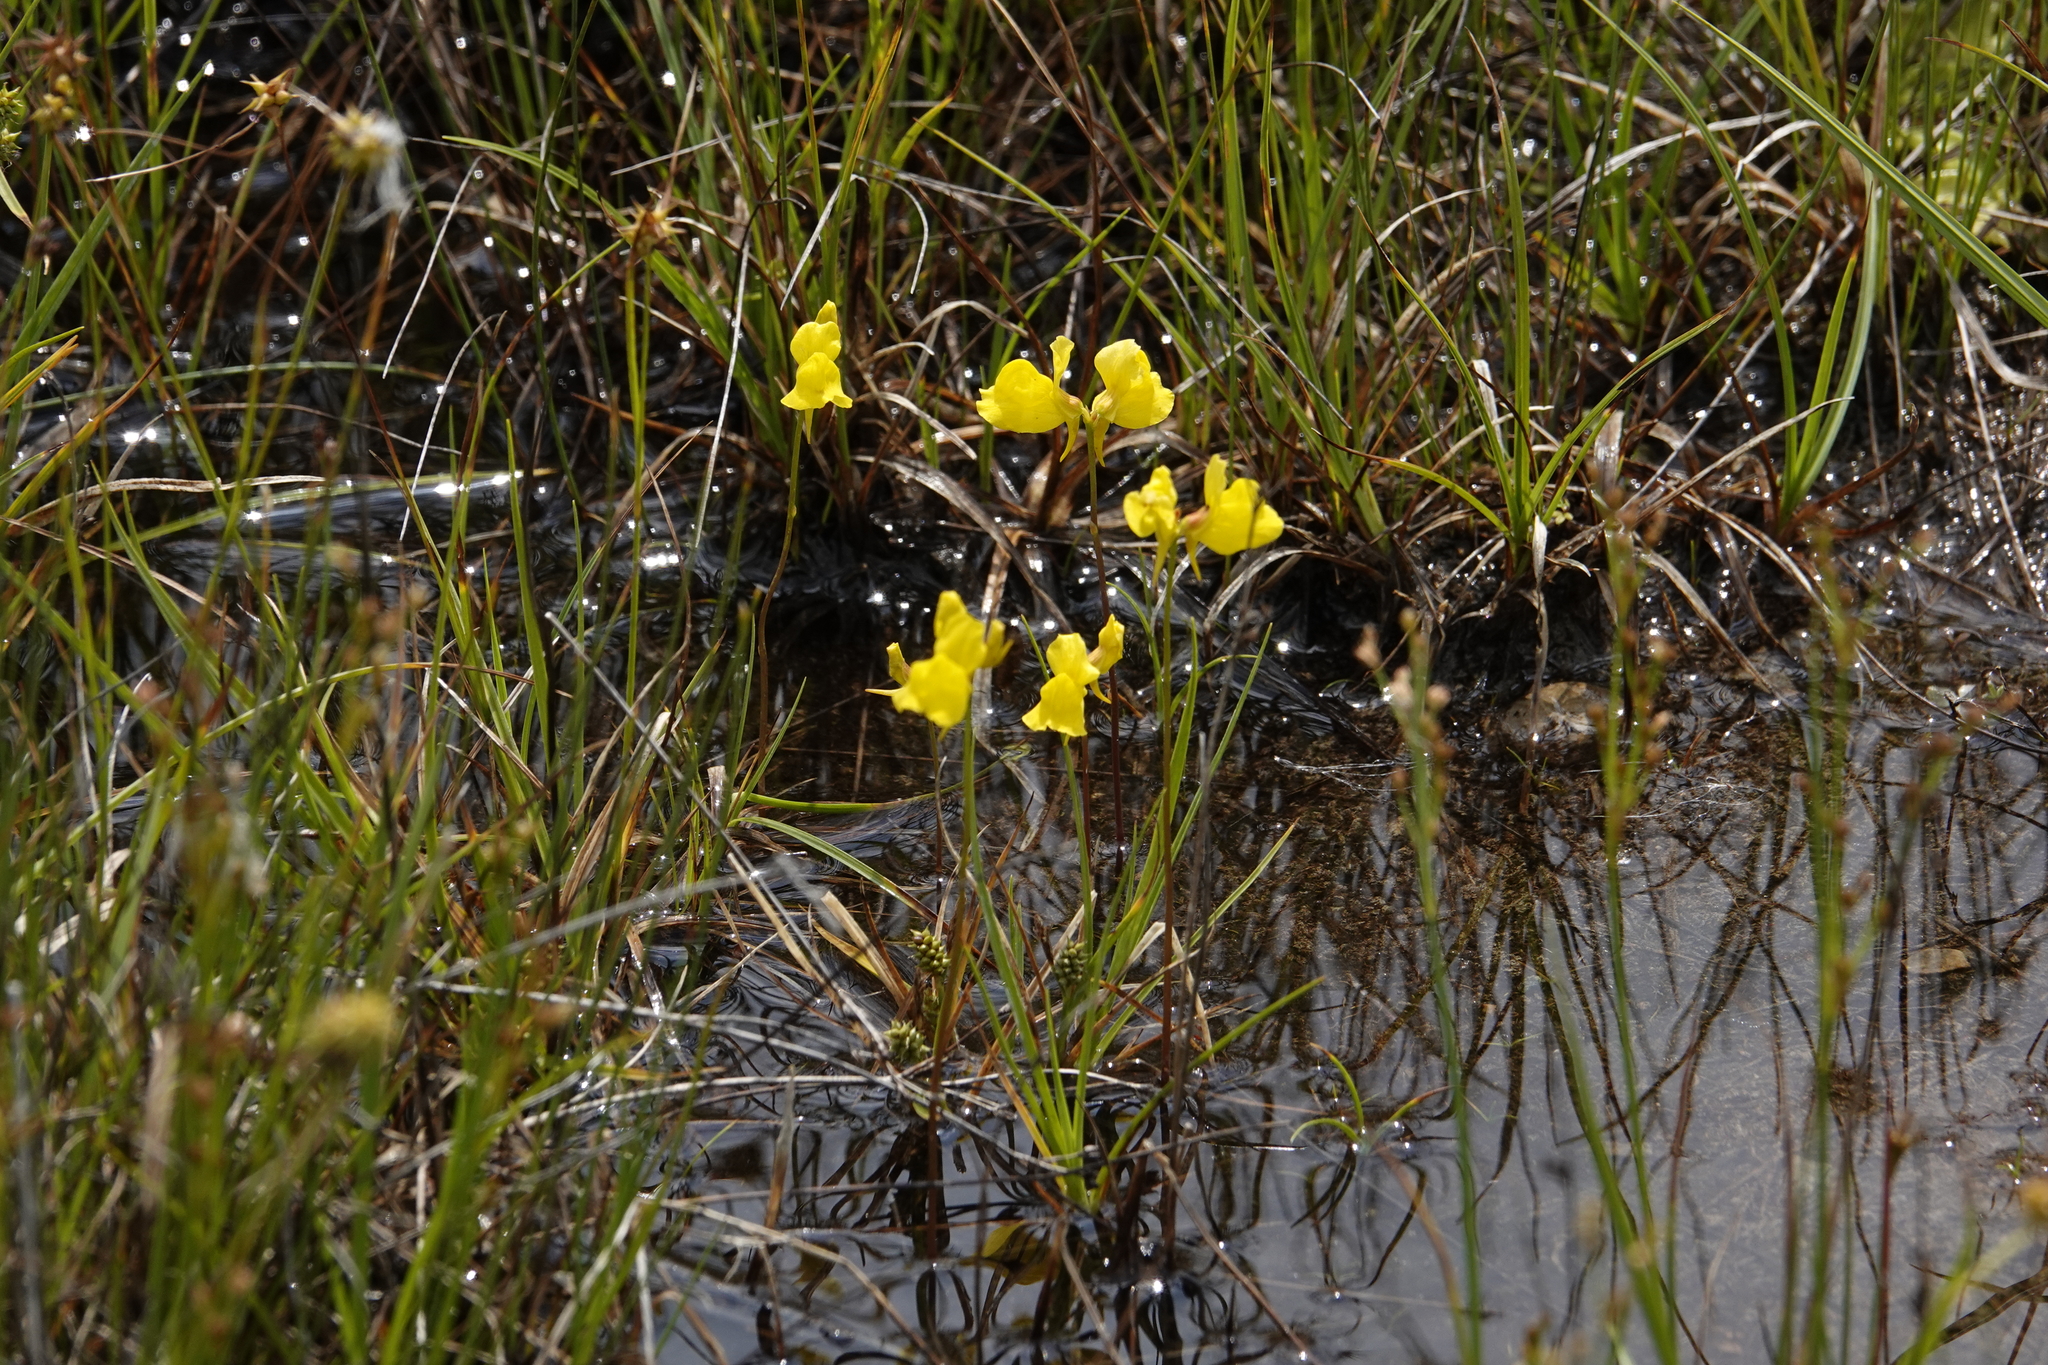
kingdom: Plantae
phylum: Tracheophyta
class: Magnoliopsida
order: Lamiales
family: Lentibulariaceae
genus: Utricularia
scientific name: Utricularia cornuta
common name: Horned bladderwort
